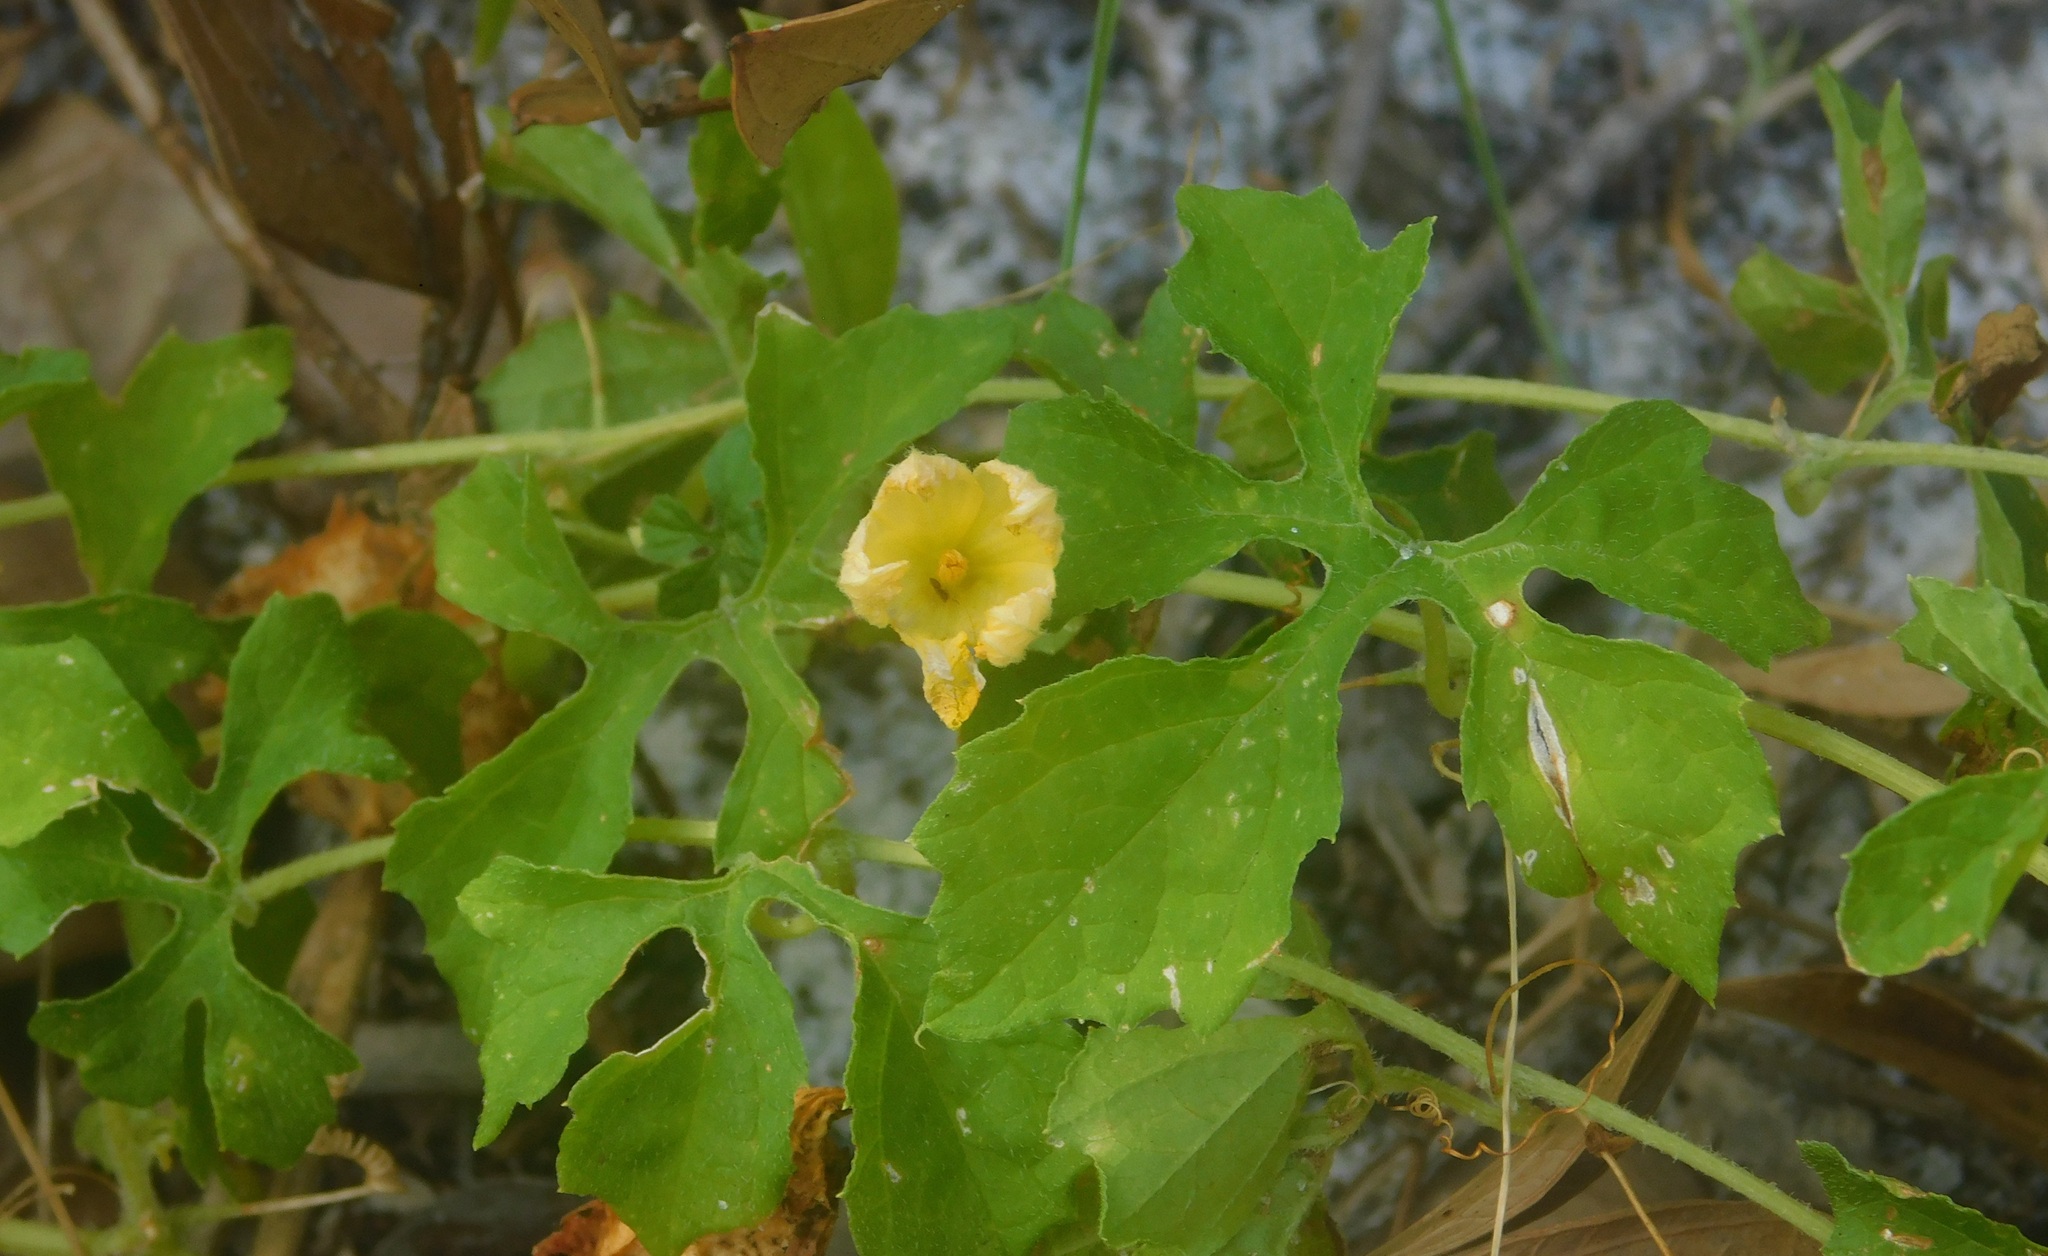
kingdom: Plantae
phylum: Tracheophyta
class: Magnoliopsida
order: Cucurbitales
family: Cucurbitaceae
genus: Momordica
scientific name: Momordica charantia
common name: Balsampear
